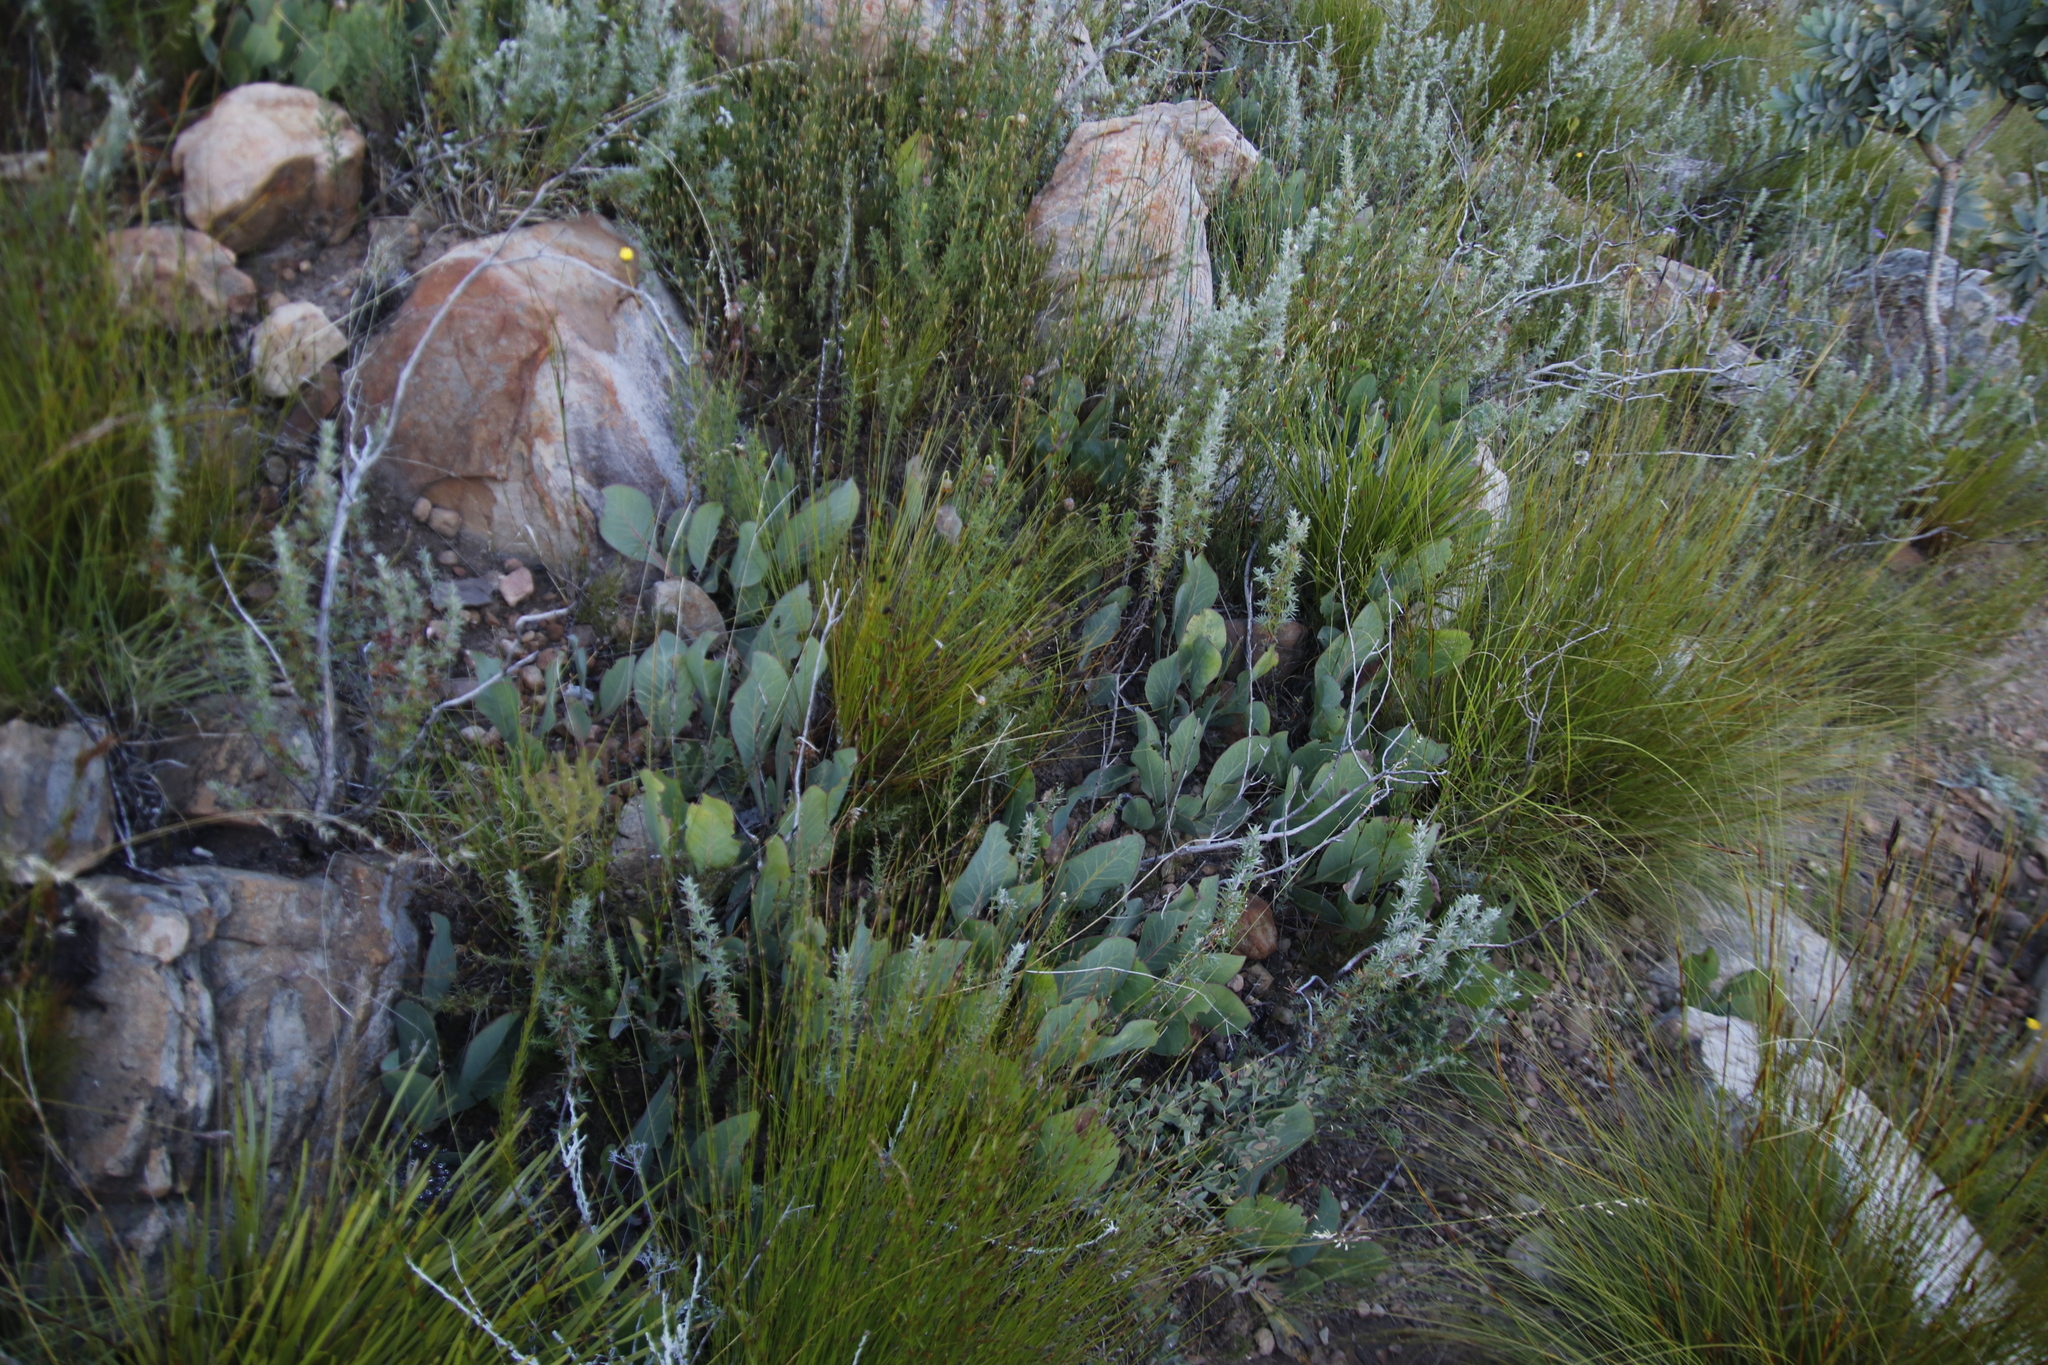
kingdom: Plantae
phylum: Tracheophyta
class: Magnoliopsida
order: Proteales
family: Proteaceae
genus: Protea
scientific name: Protea acaulos
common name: Common ground sugarbush
